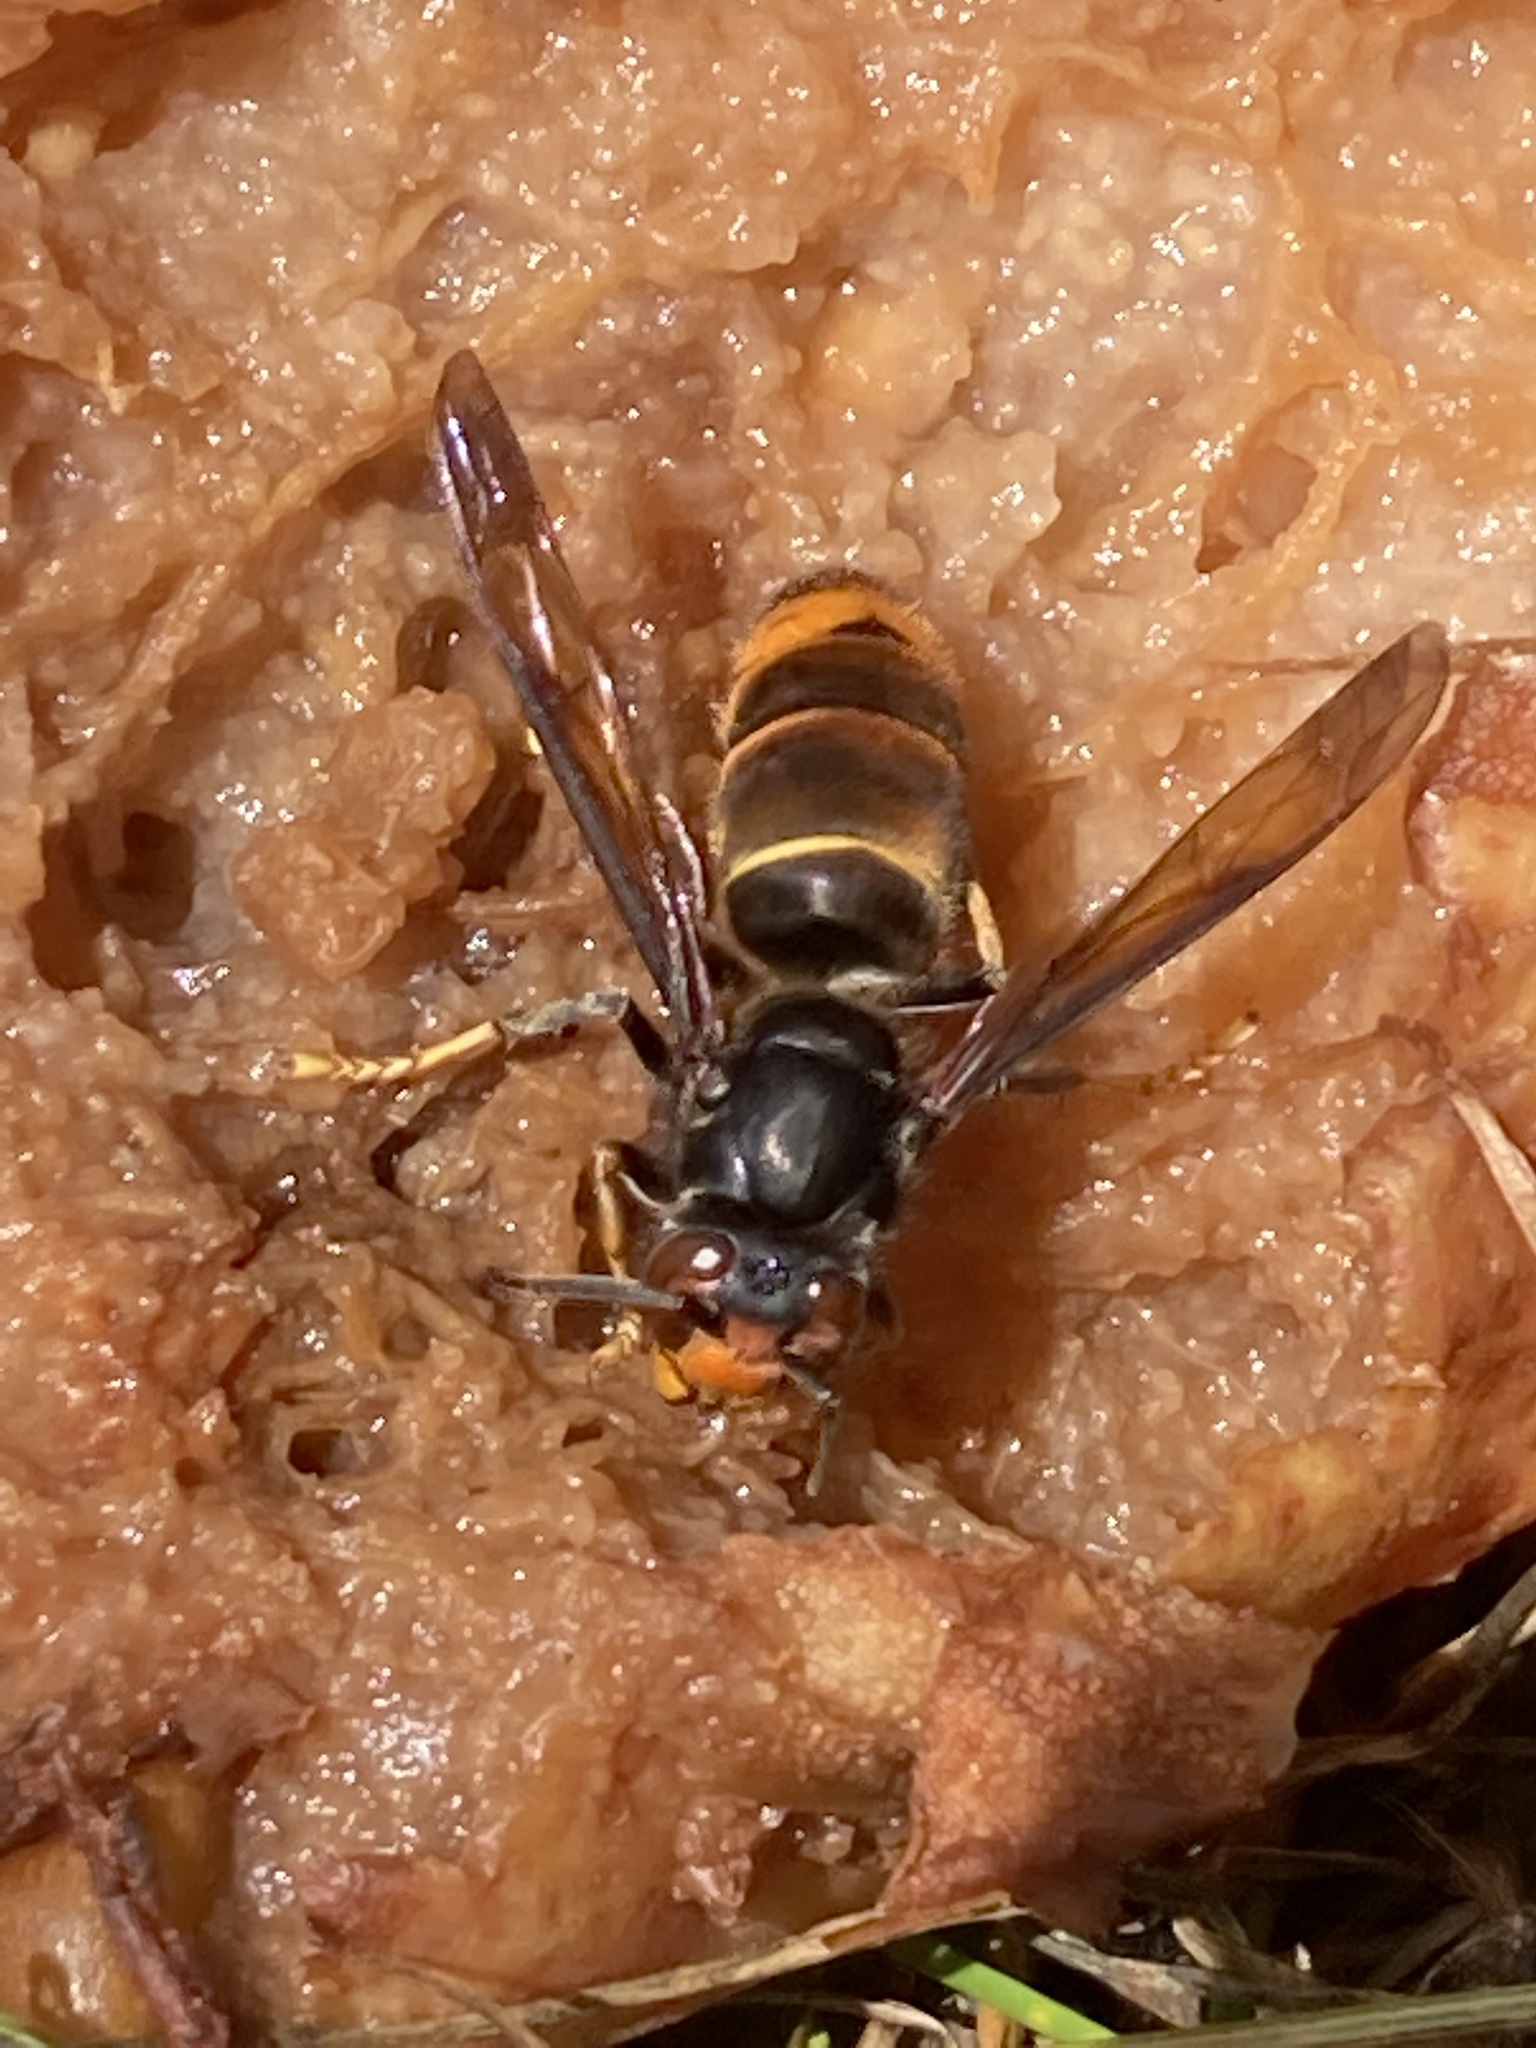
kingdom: Animalia
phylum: Arthropoda
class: Insecta
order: Hymenoptera
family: Vespidae
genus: Vespa
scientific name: Vespa velutina
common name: Asian hornet
